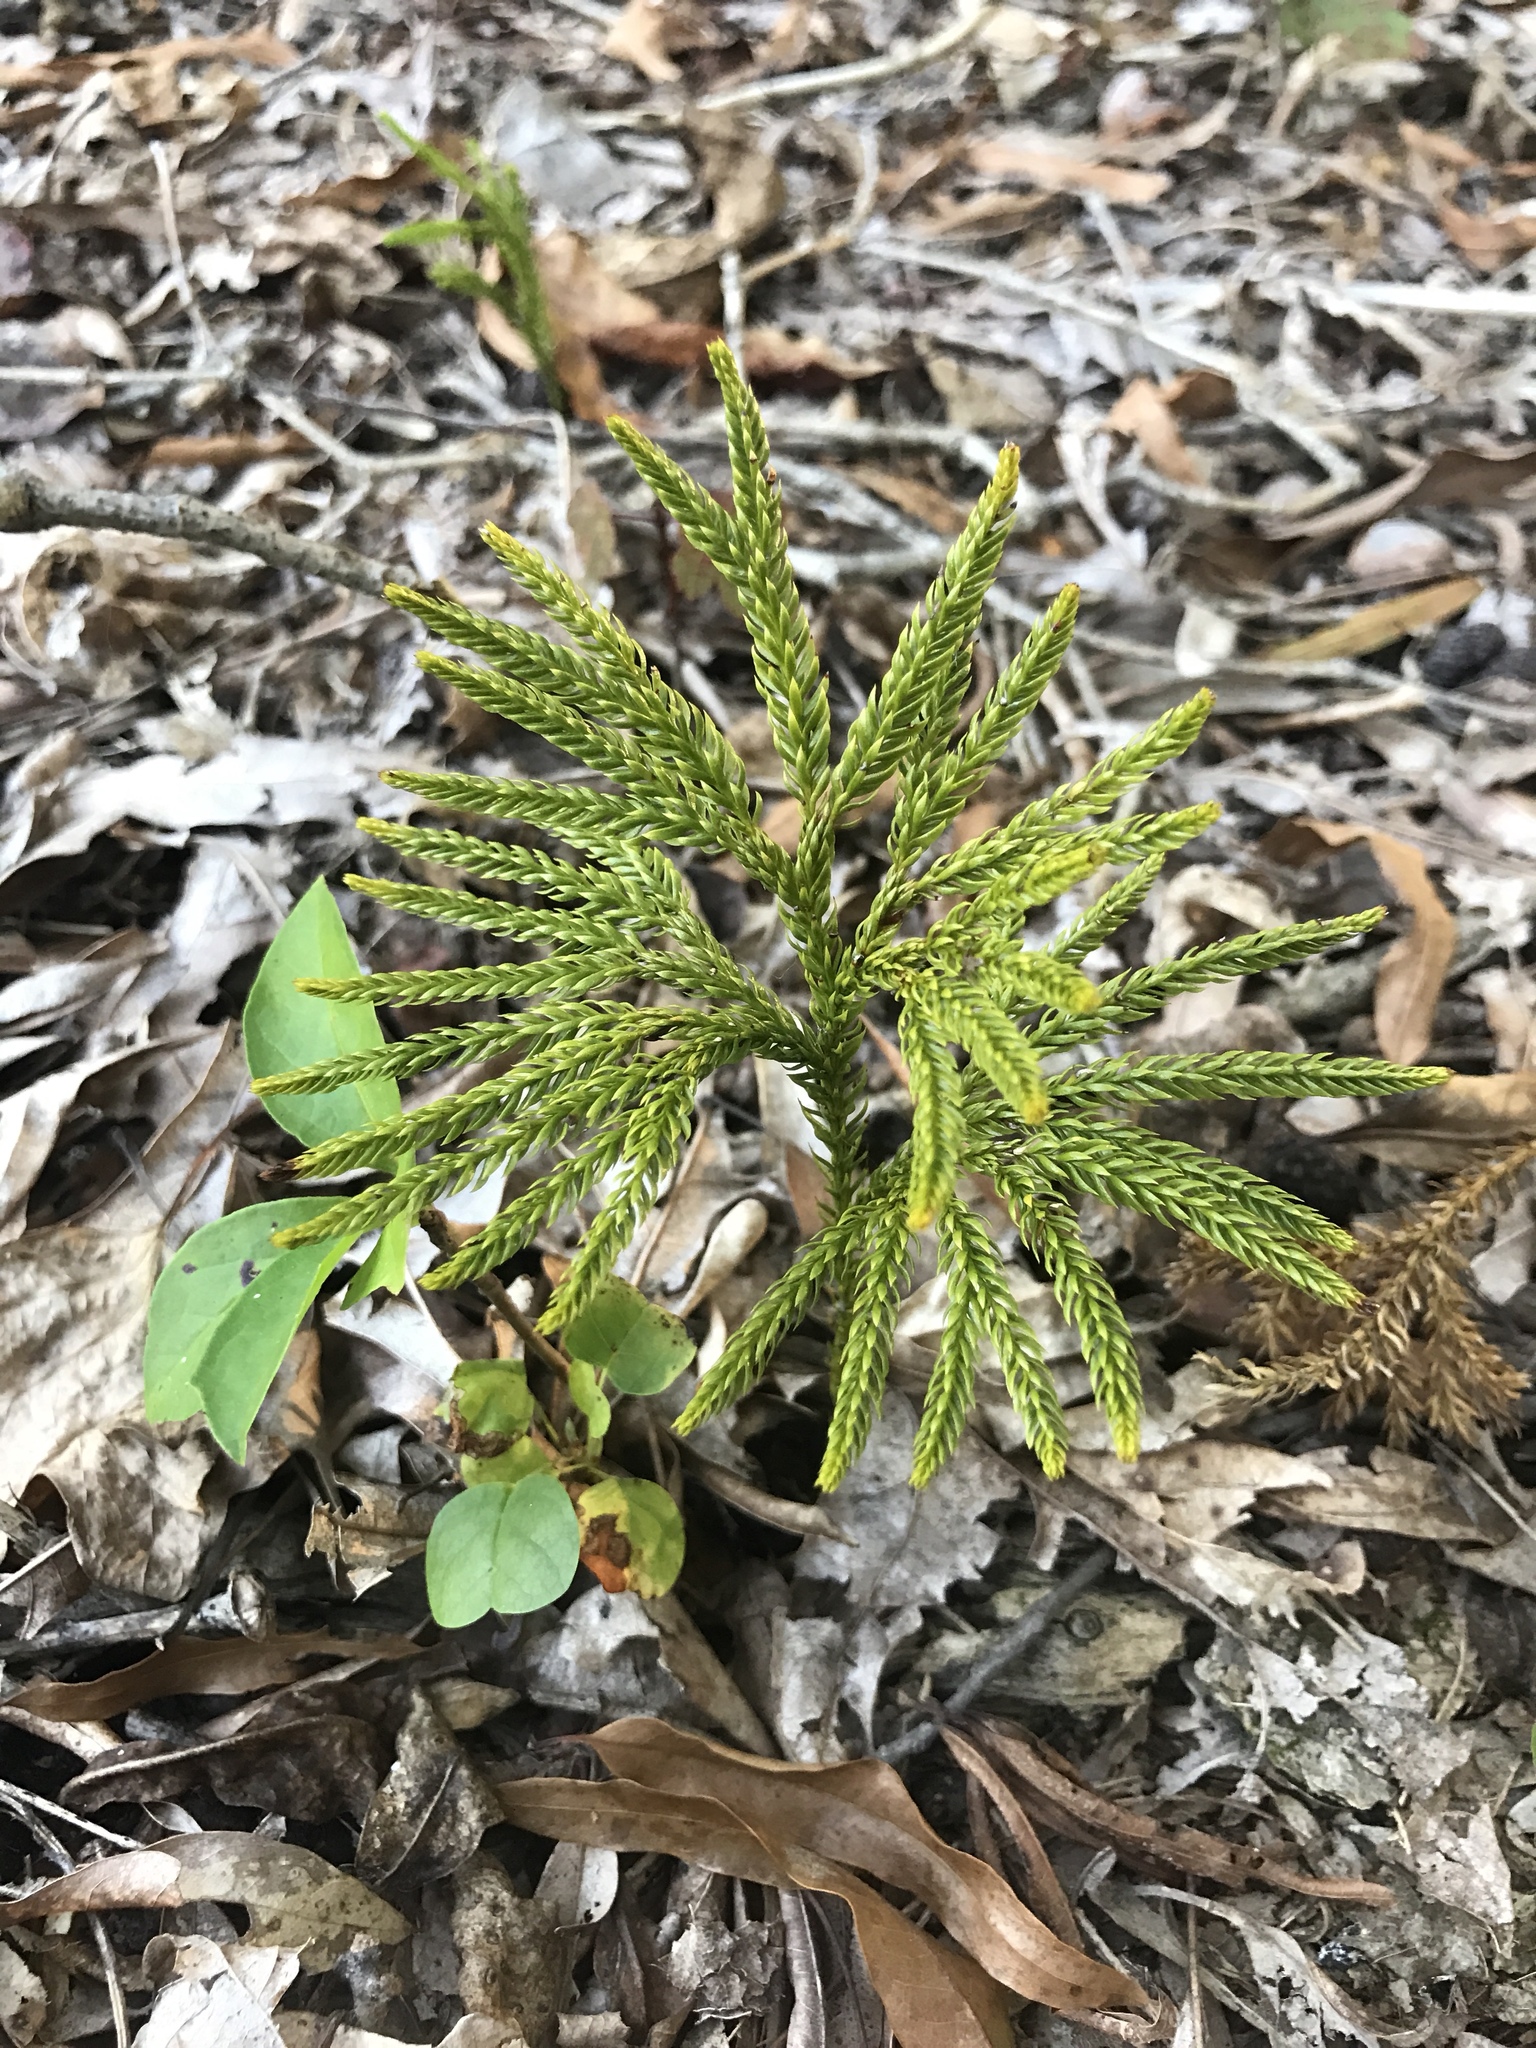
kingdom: Plantae
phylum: Tracheophyta
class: Lycopodiopsida
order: Lycopodiales
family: Lycopodiaceae
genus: Dendrolycopodium
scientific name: Dendrolycopodium obscurum
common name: Common ground-pine
